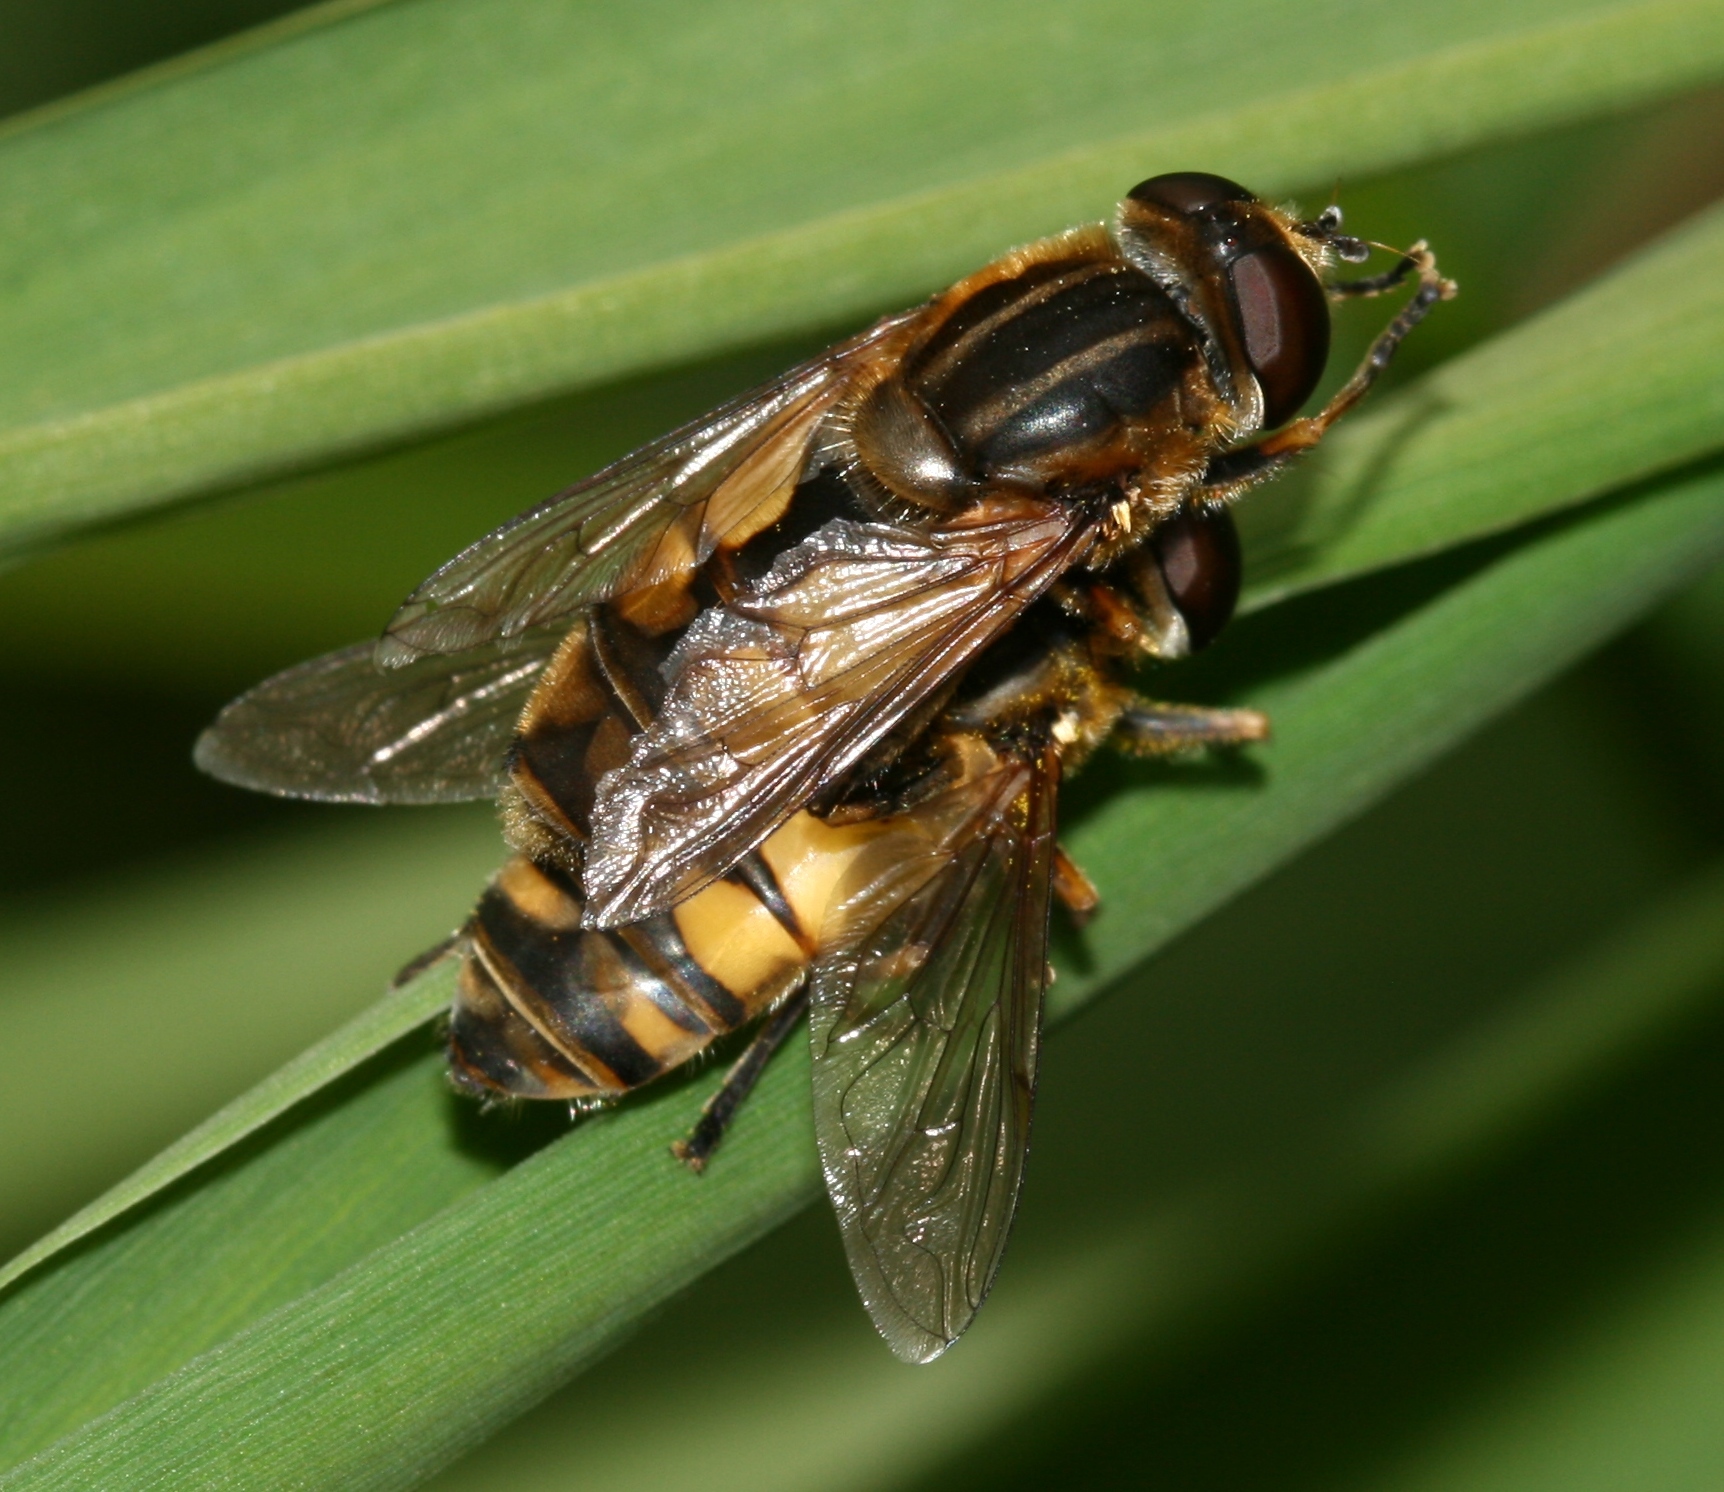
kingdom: Animalia
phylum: Arthropoda
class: Insecta
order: Diptera
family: Syrphidae
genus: Helophilus
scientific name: Helophilus hybridus
